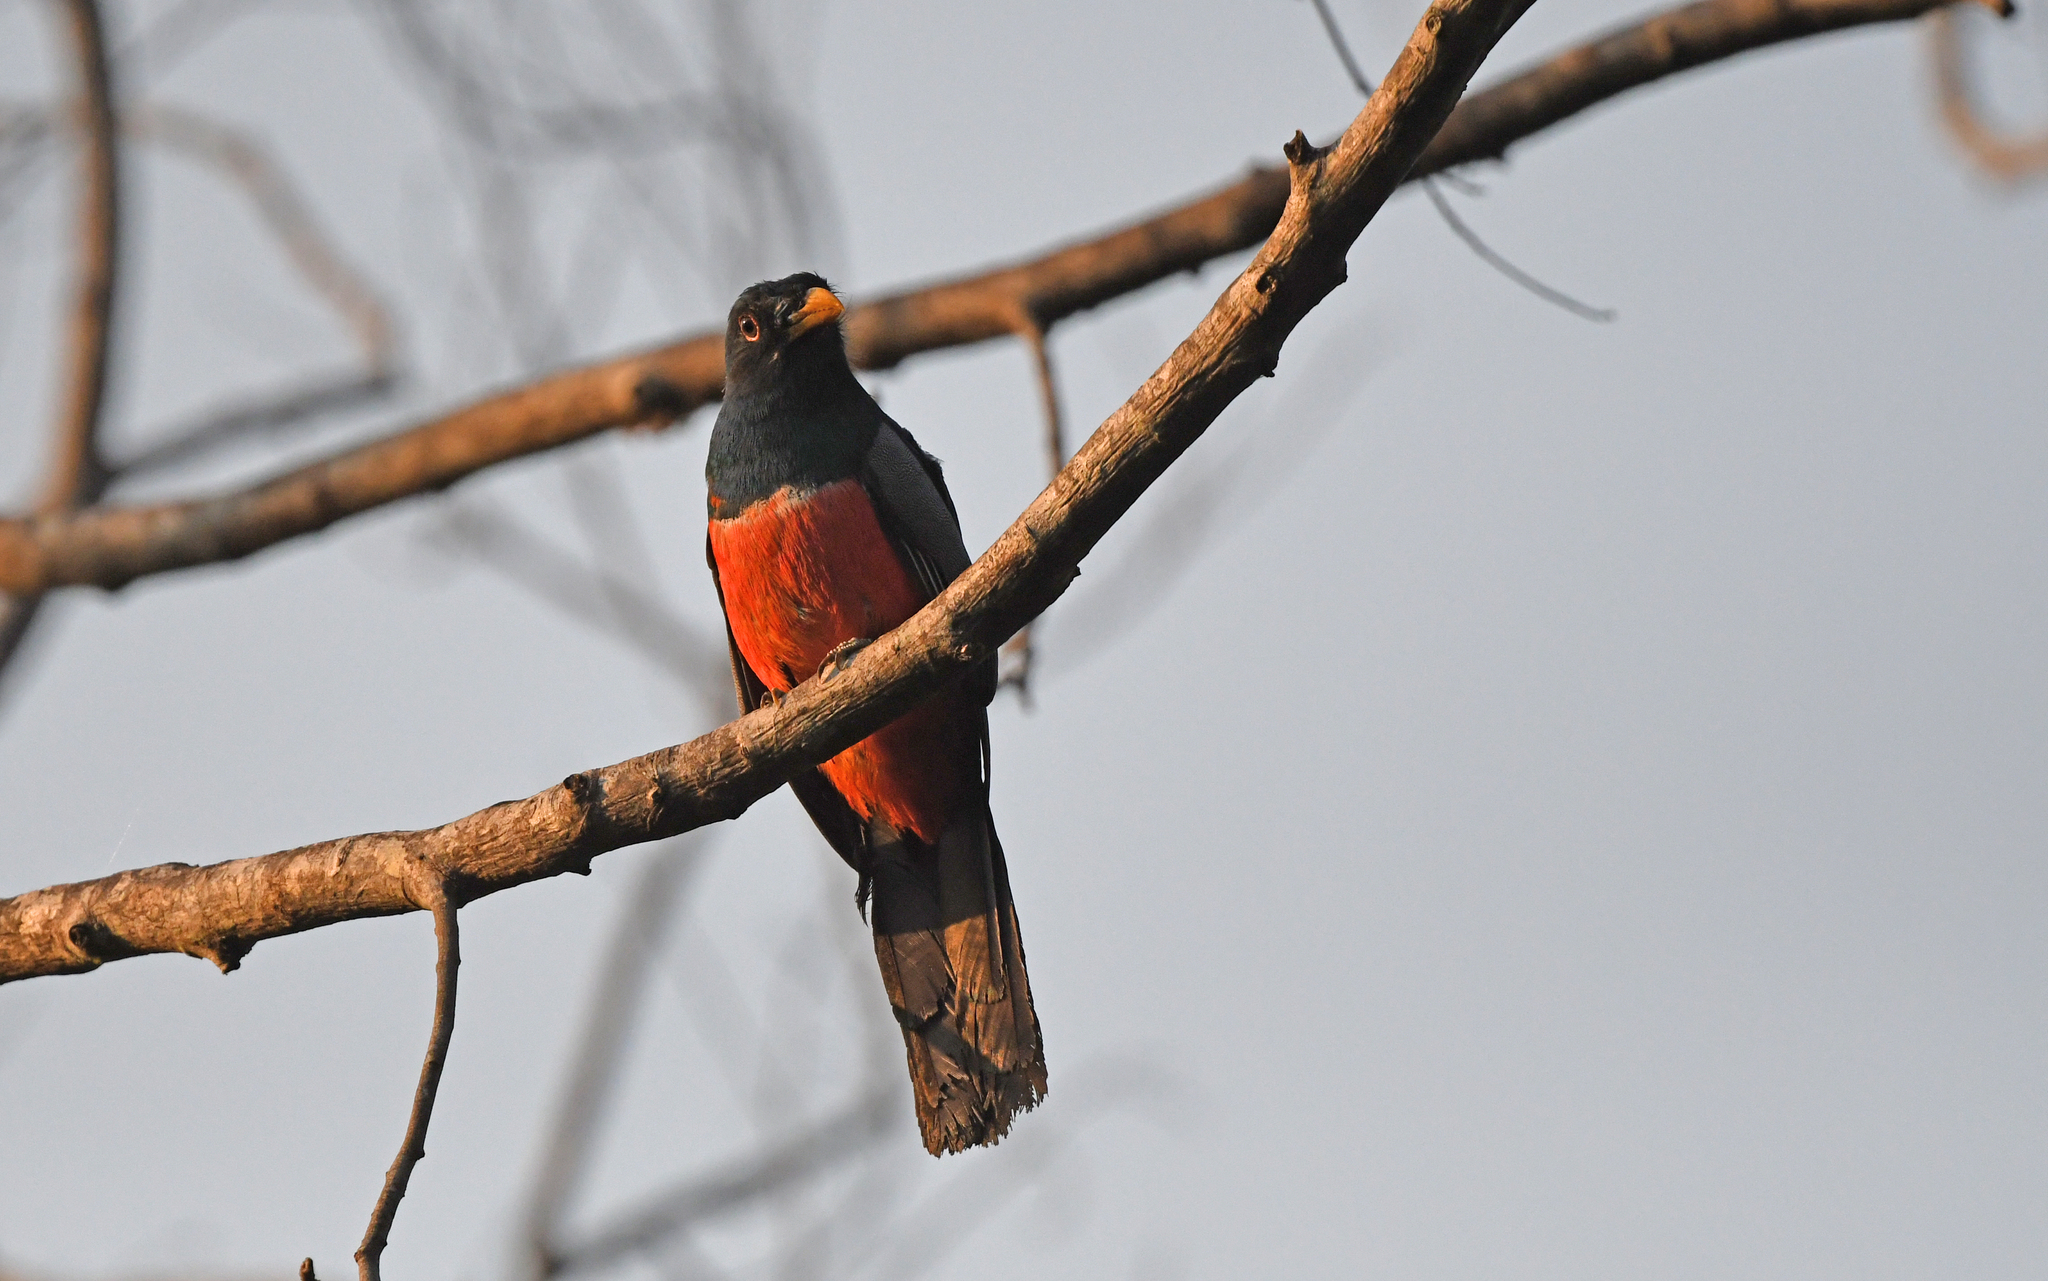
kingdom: Animalia
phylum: Chordata
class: Aves
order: Trogoniformes
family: Trogonidae
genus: Trogon
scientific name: Trogon melanurus
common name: Black-tailed trogon
